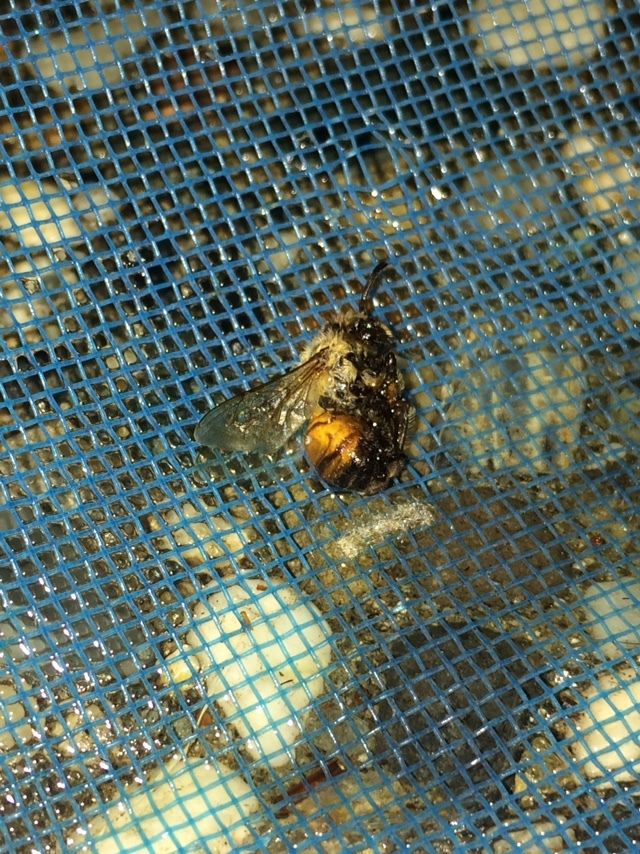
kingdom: Animalia
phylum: Arthropoda
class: Insecta
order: Hymenoptera
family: Apidae
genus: Apis
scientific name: Apis mellifera
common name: Honey bee
